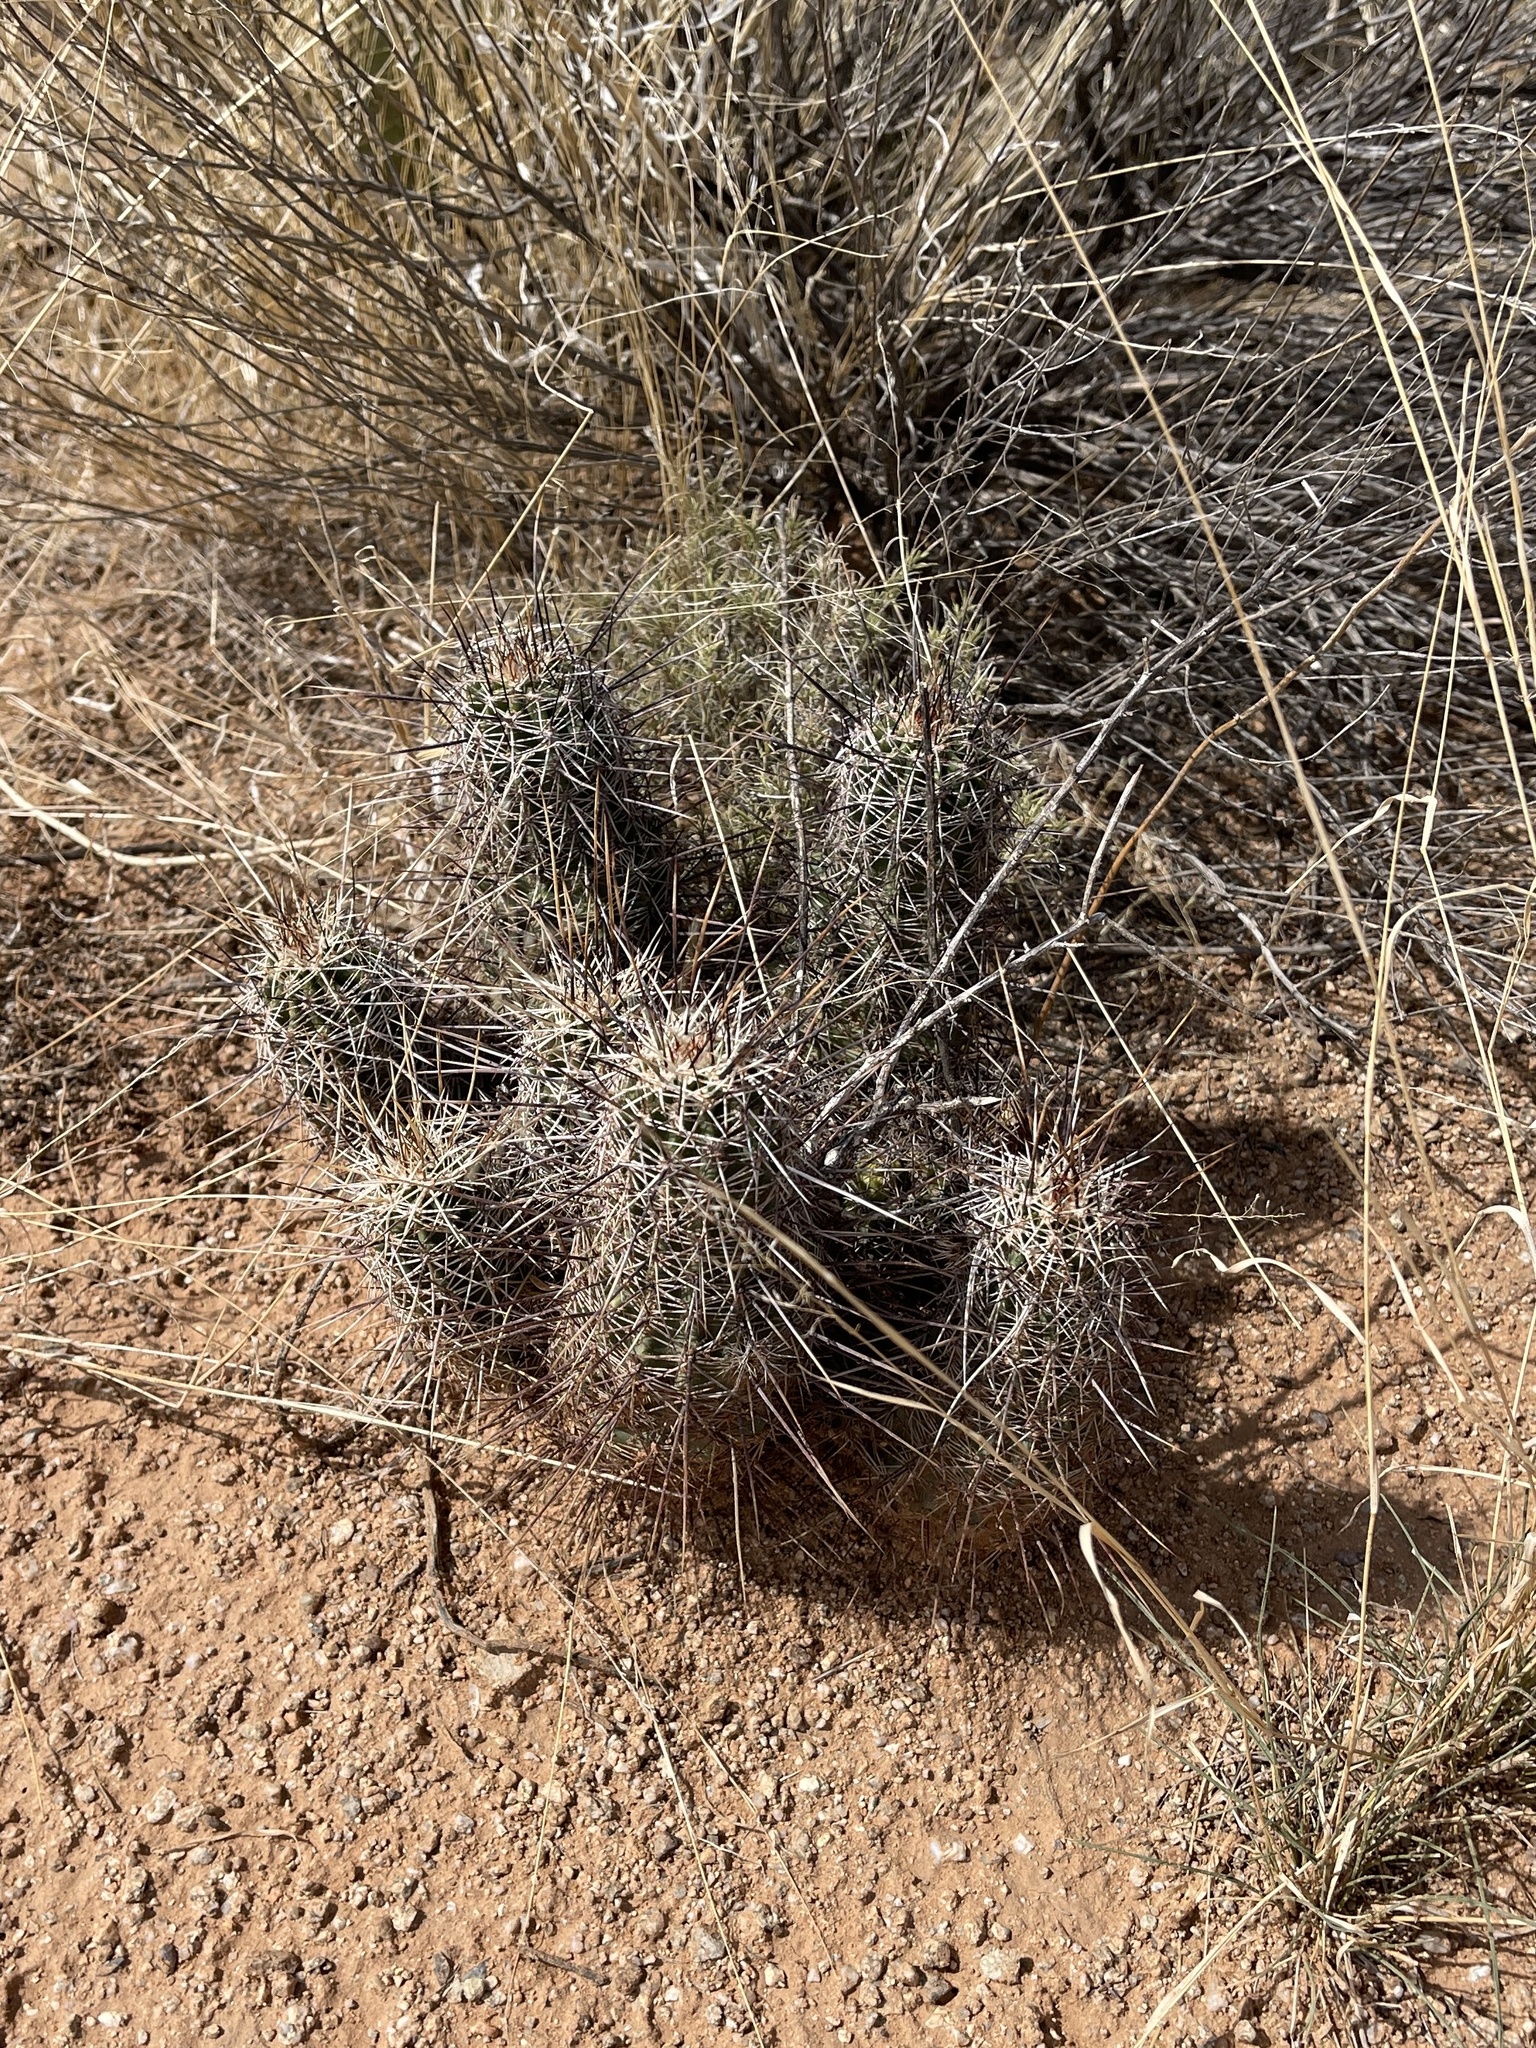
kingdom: Plantae
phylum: Tracheophyta
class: Magnoliopsida
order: Caryophyllales
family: Cactaceae
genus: Echinocereus
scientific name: Echinocereus fasciculatus
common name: Bundle hedgehog
